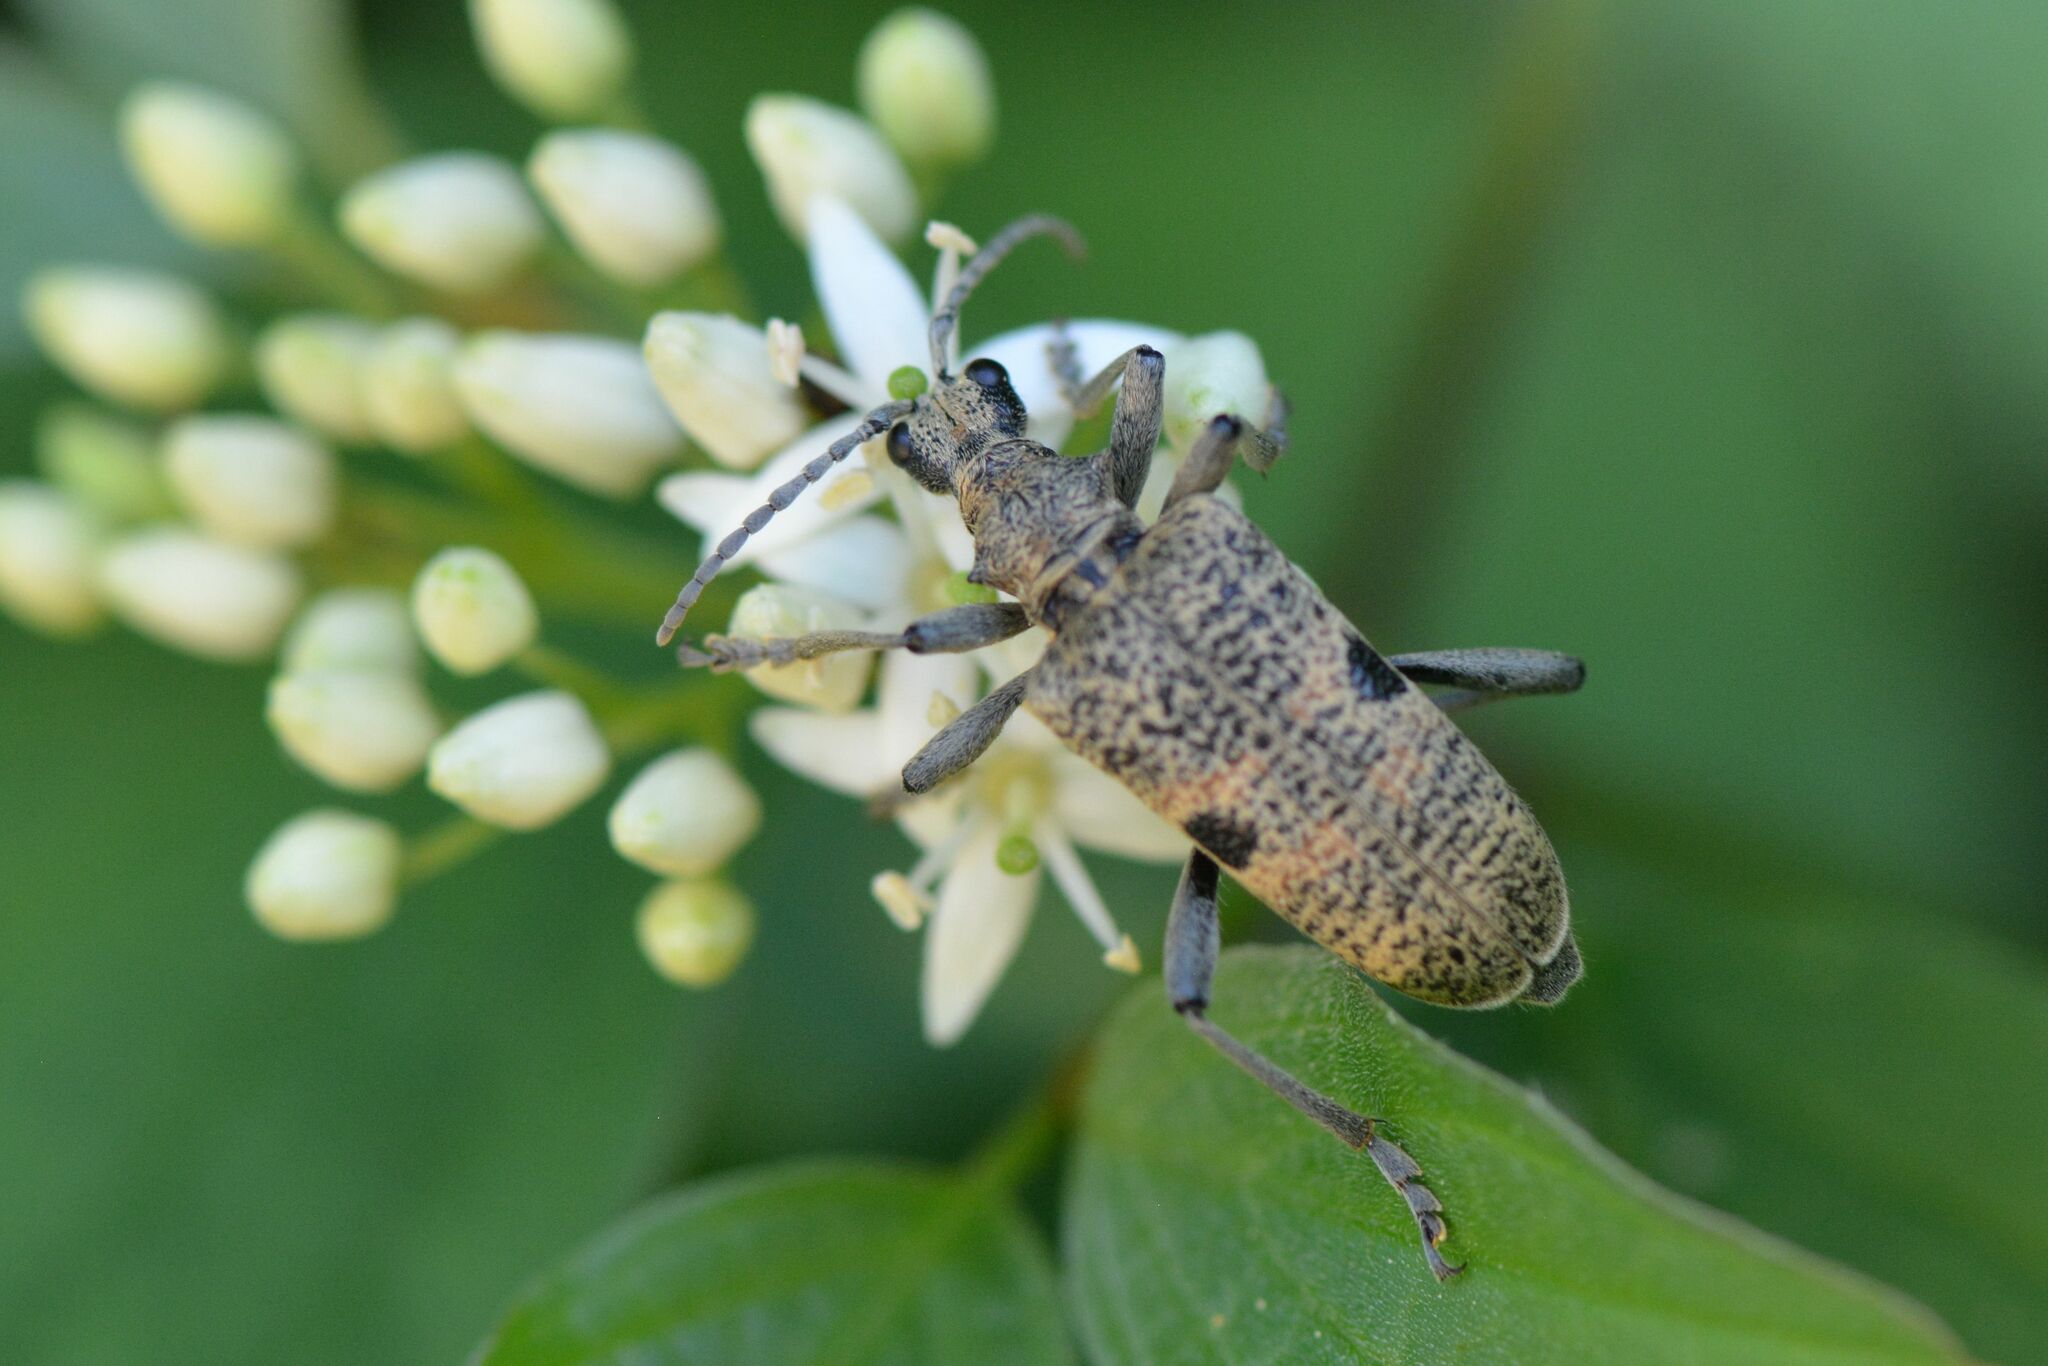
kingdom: Animalia
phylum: Arthropoda
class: Insecta
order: Coleoptera
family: Cerambycidae
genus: Rhagium
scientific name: Rhagium mordax
